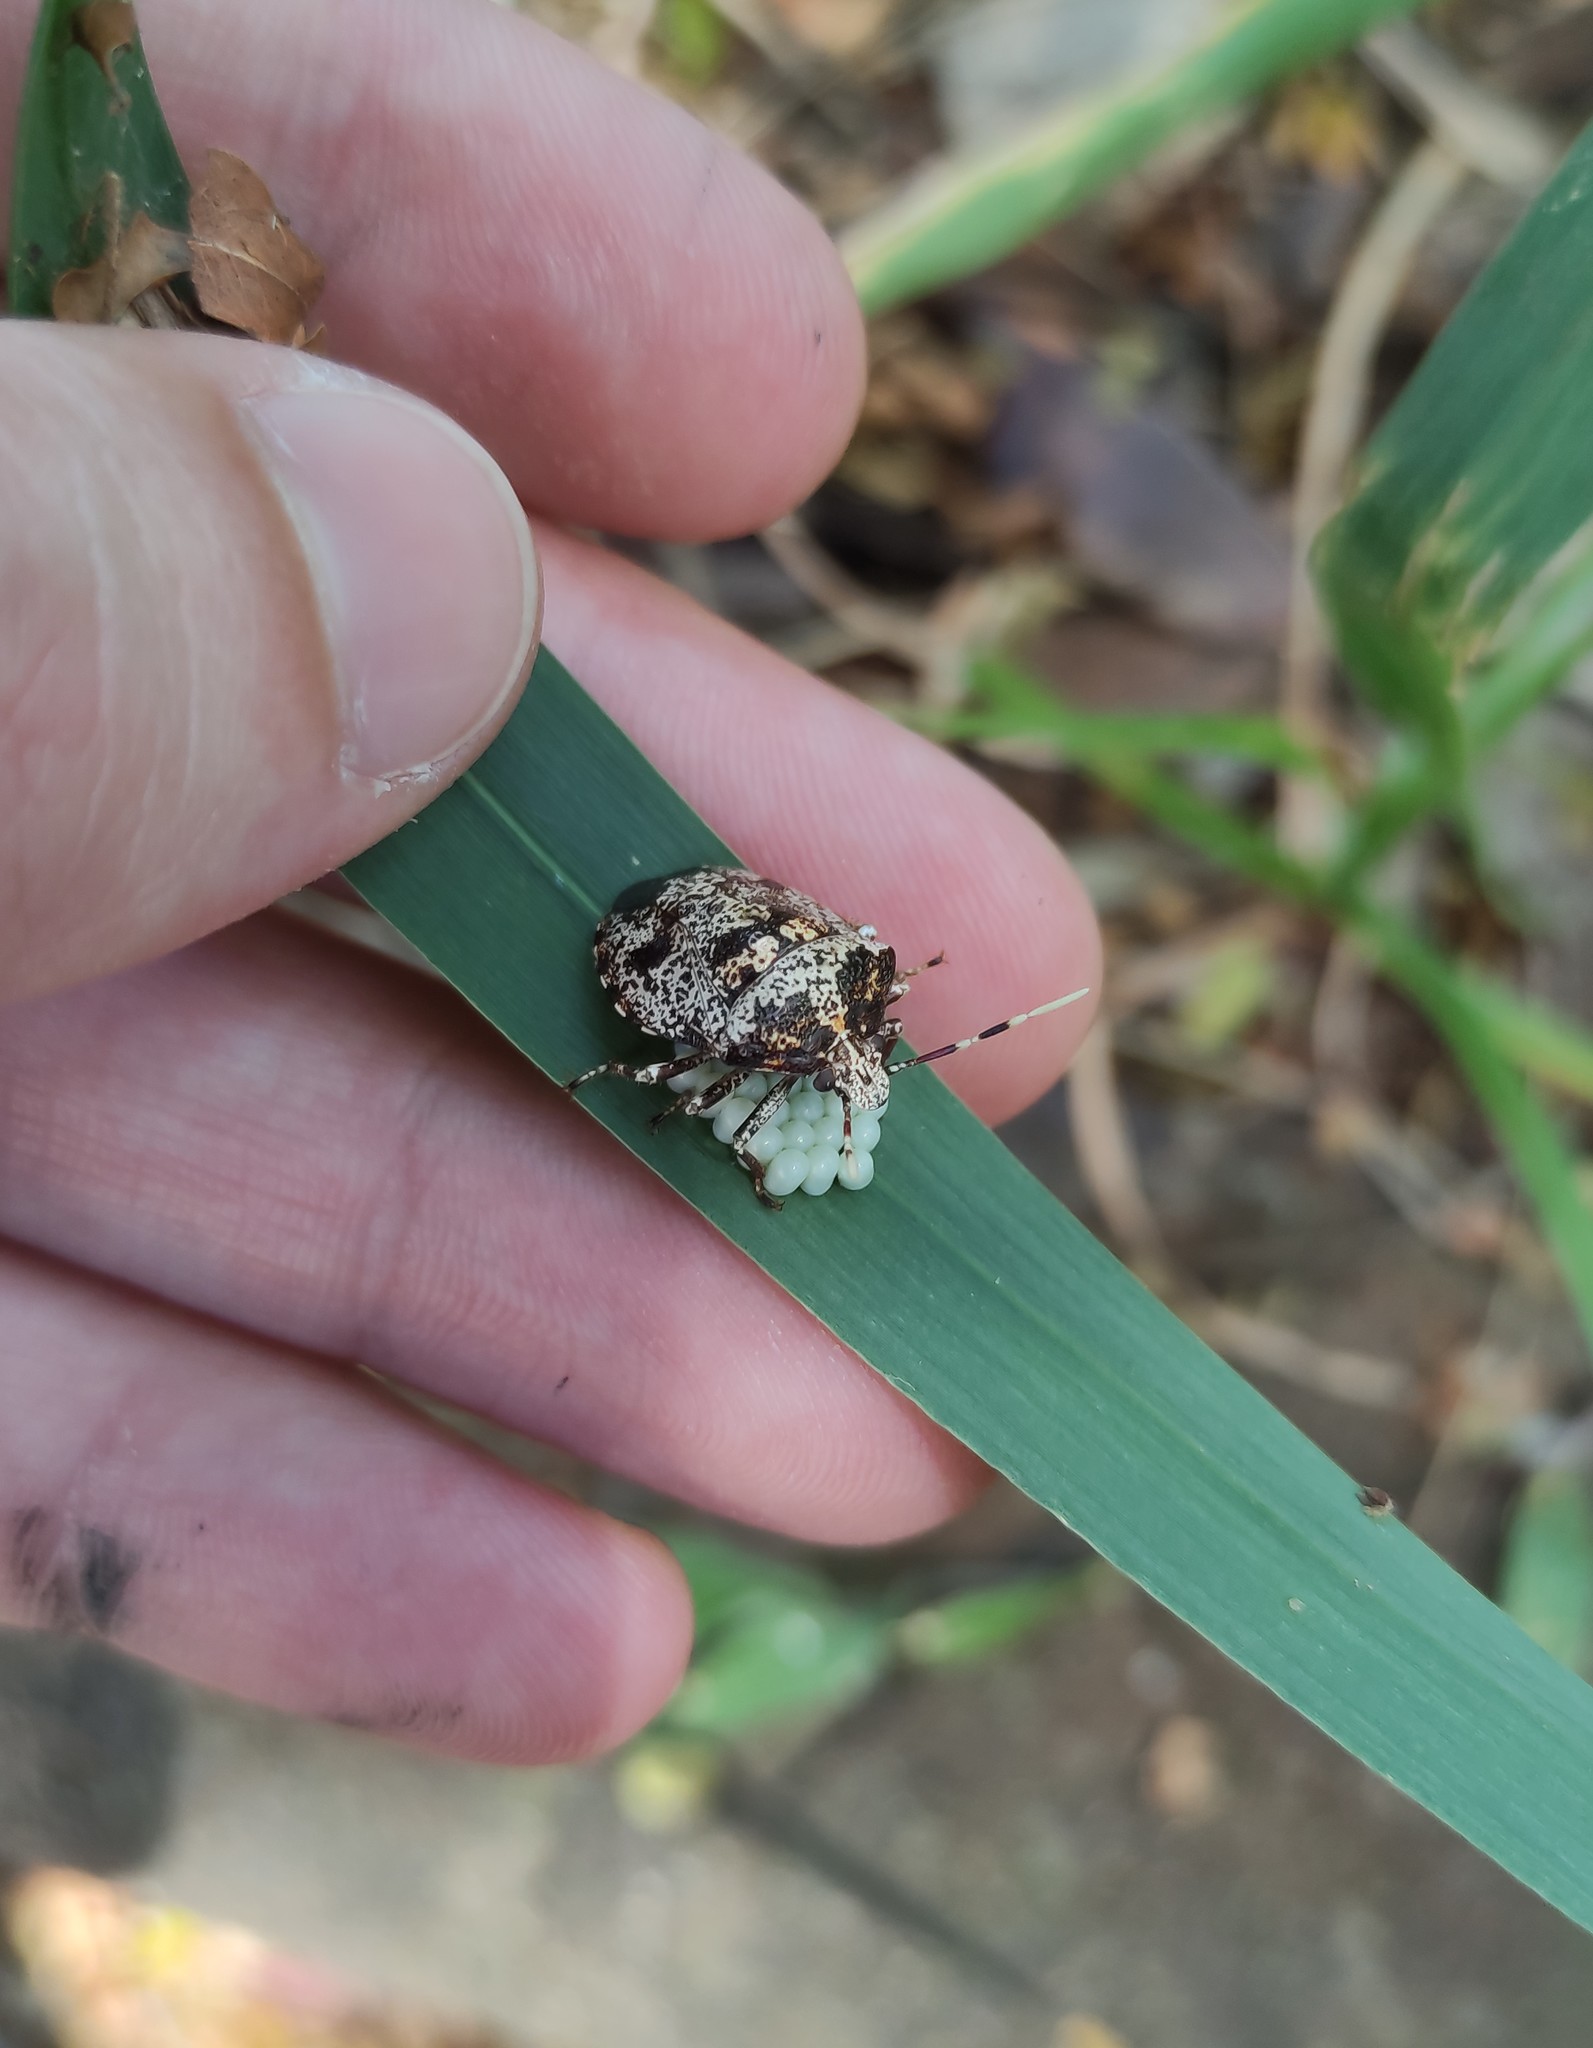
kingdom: Animalia
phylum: Arthropoda
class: Insecta
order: Hemiptera
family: Pentatomidae
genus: Antiteuchus
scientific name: Antiteuchus mixtus
